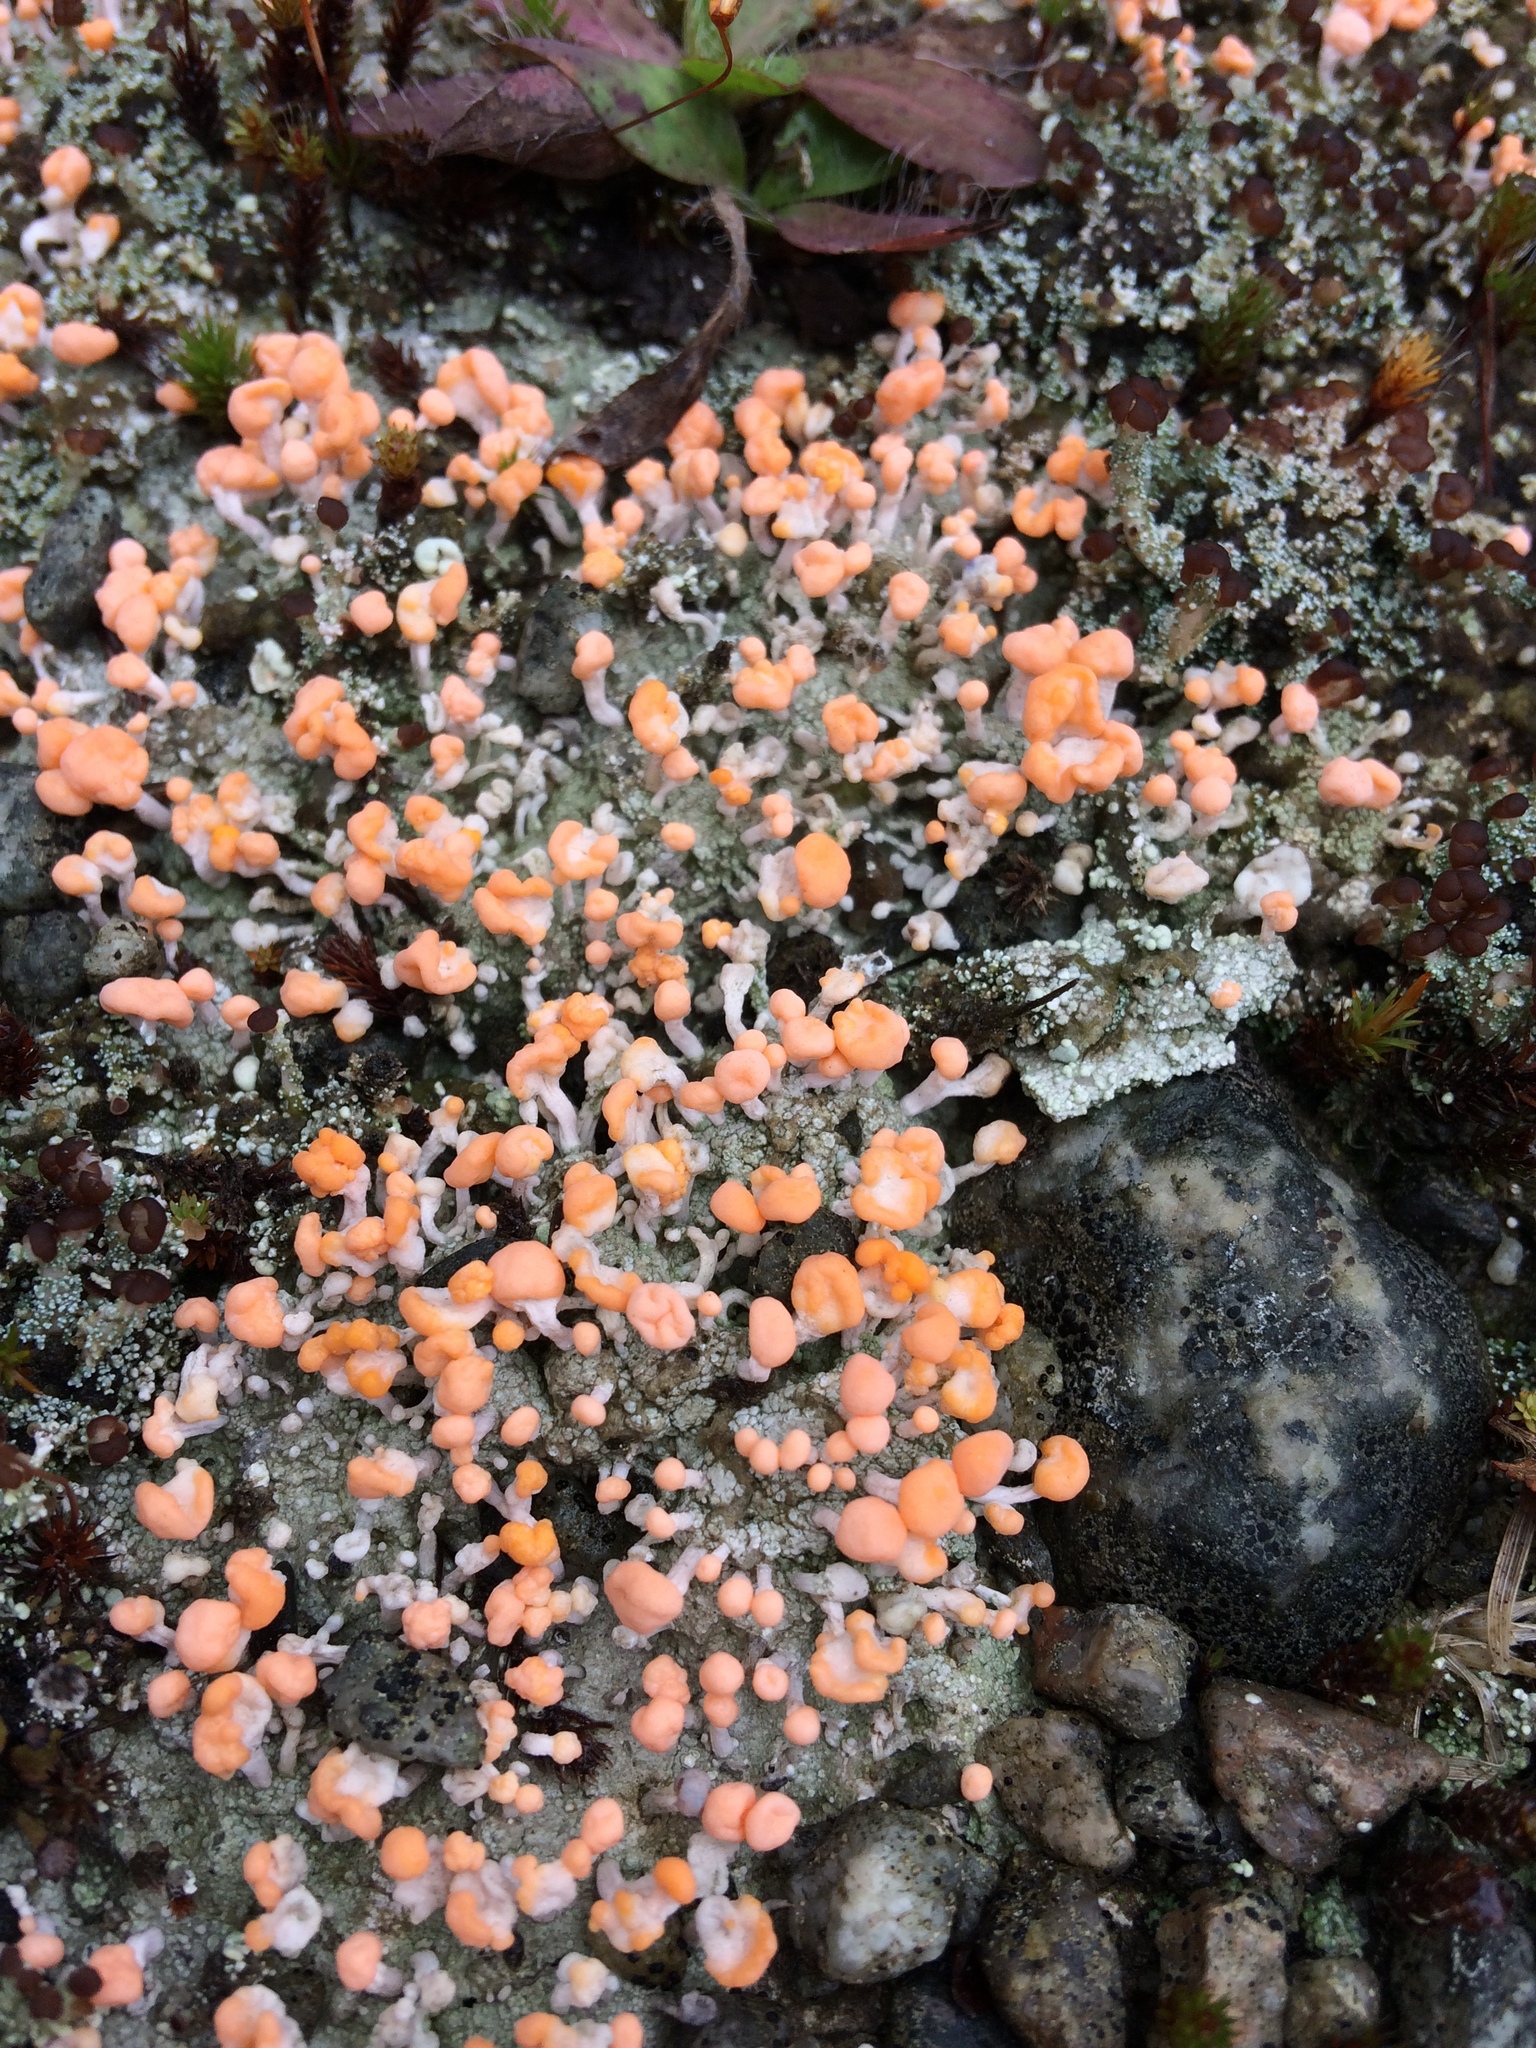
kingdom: Fungi
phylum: Ascomycota
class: Lecanoromycetes
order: Pertusariales
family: Icmadophilaceae
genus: Dibaeis
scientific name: Dibaeis baeomyces
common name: Pink earth lichen
